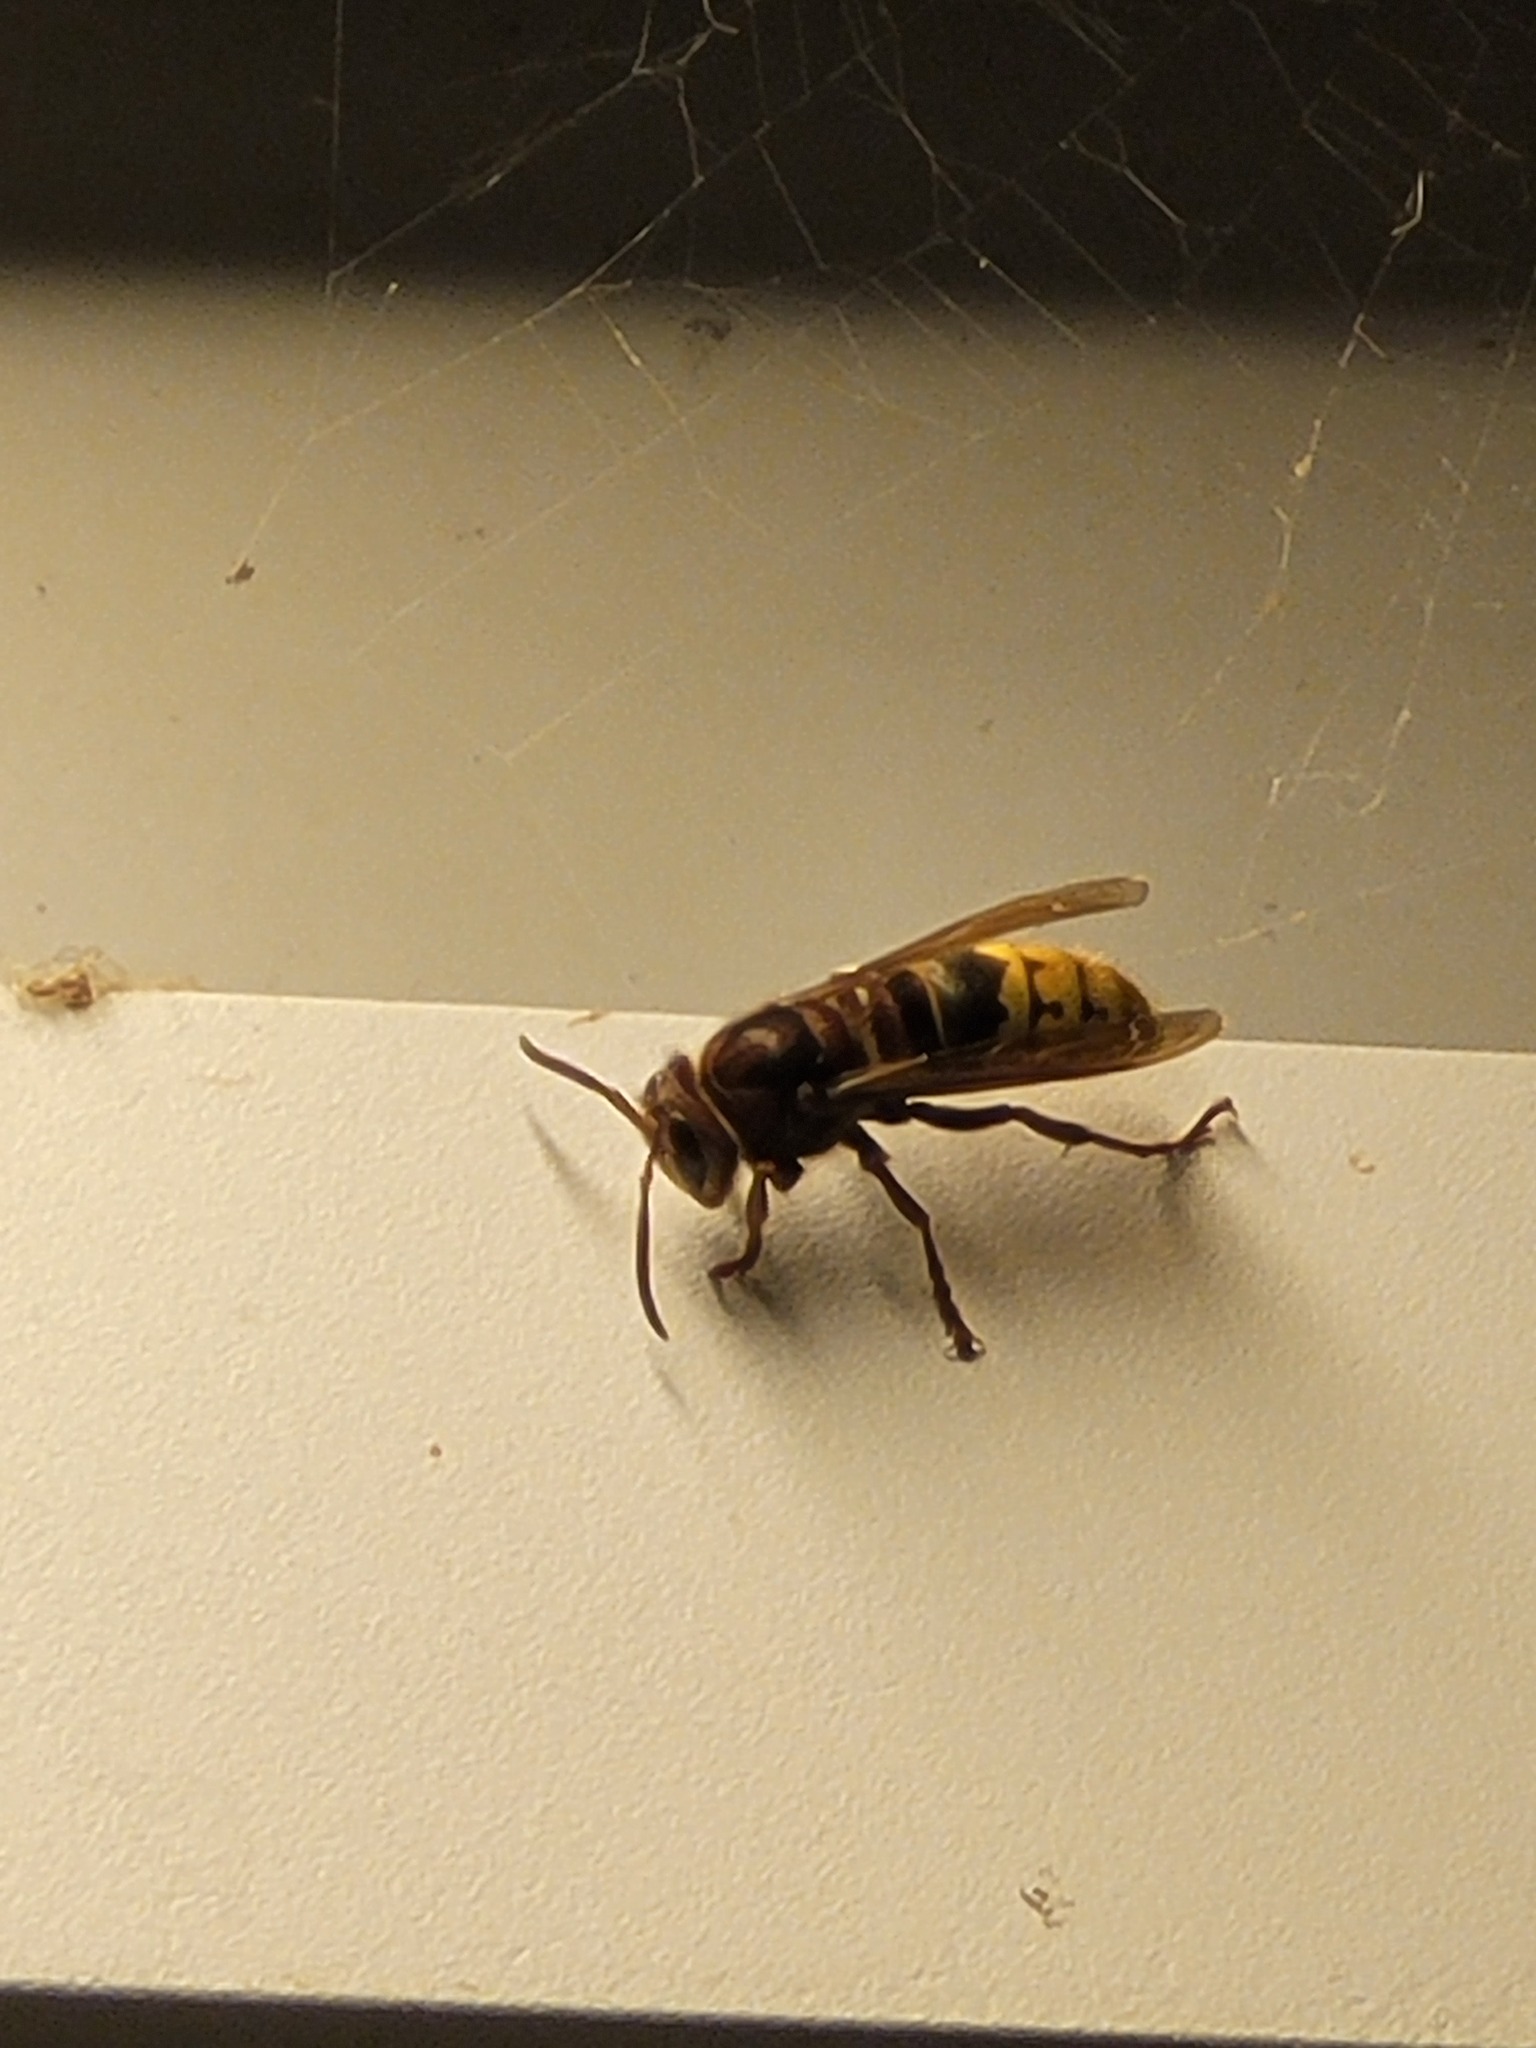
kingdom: Animalia
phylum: Arthropoda
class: Insecta
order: Hymenoptera
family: Vespidae
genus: Vespa
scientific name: Vespa crabro
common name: Hornet
